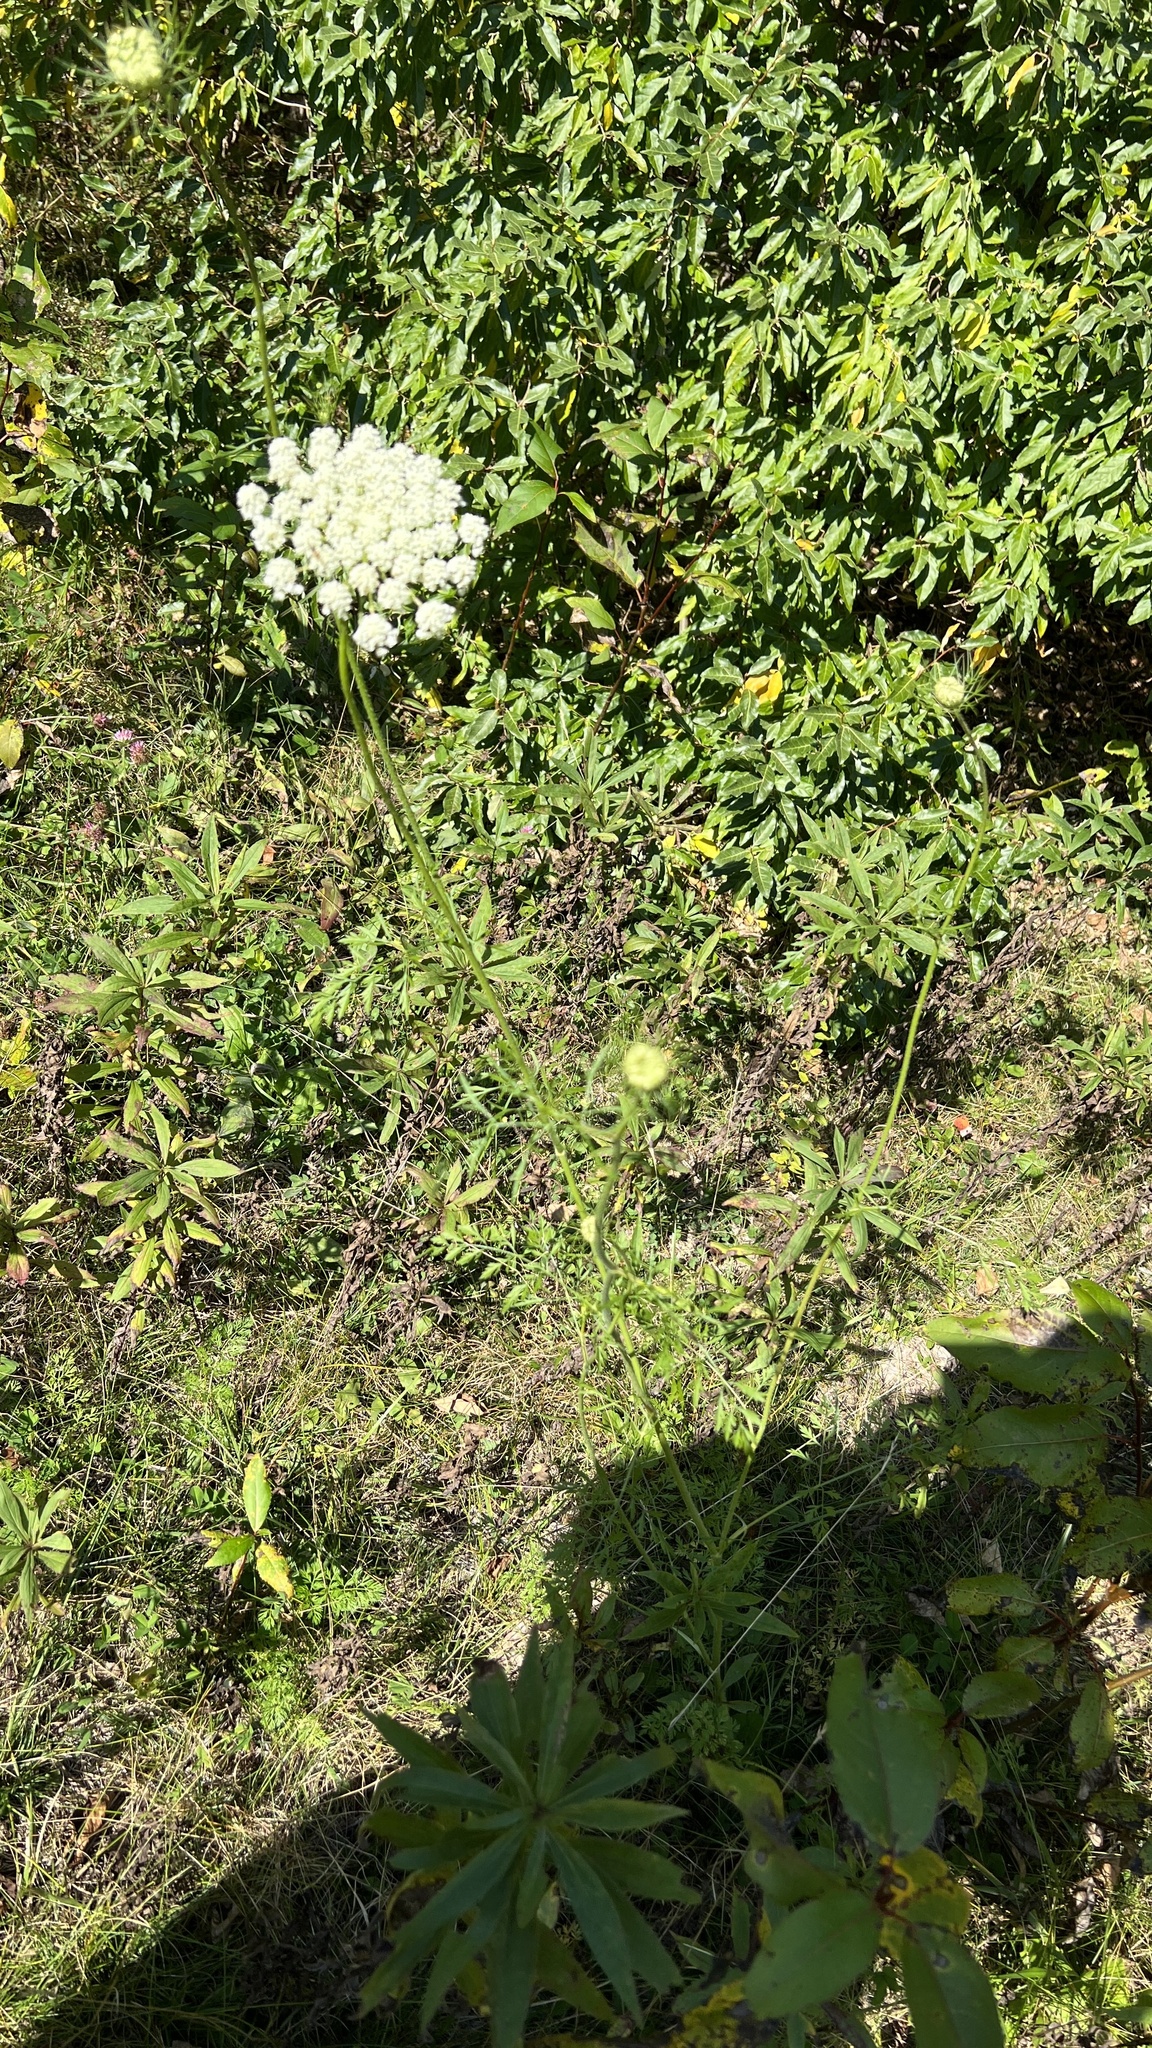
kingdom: Plantae
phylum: Tracheophyta
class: Magnoliopsida
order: Apiales
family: Apiaceae
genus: Daucus
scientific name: Daucus carota
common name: Wild carrot
